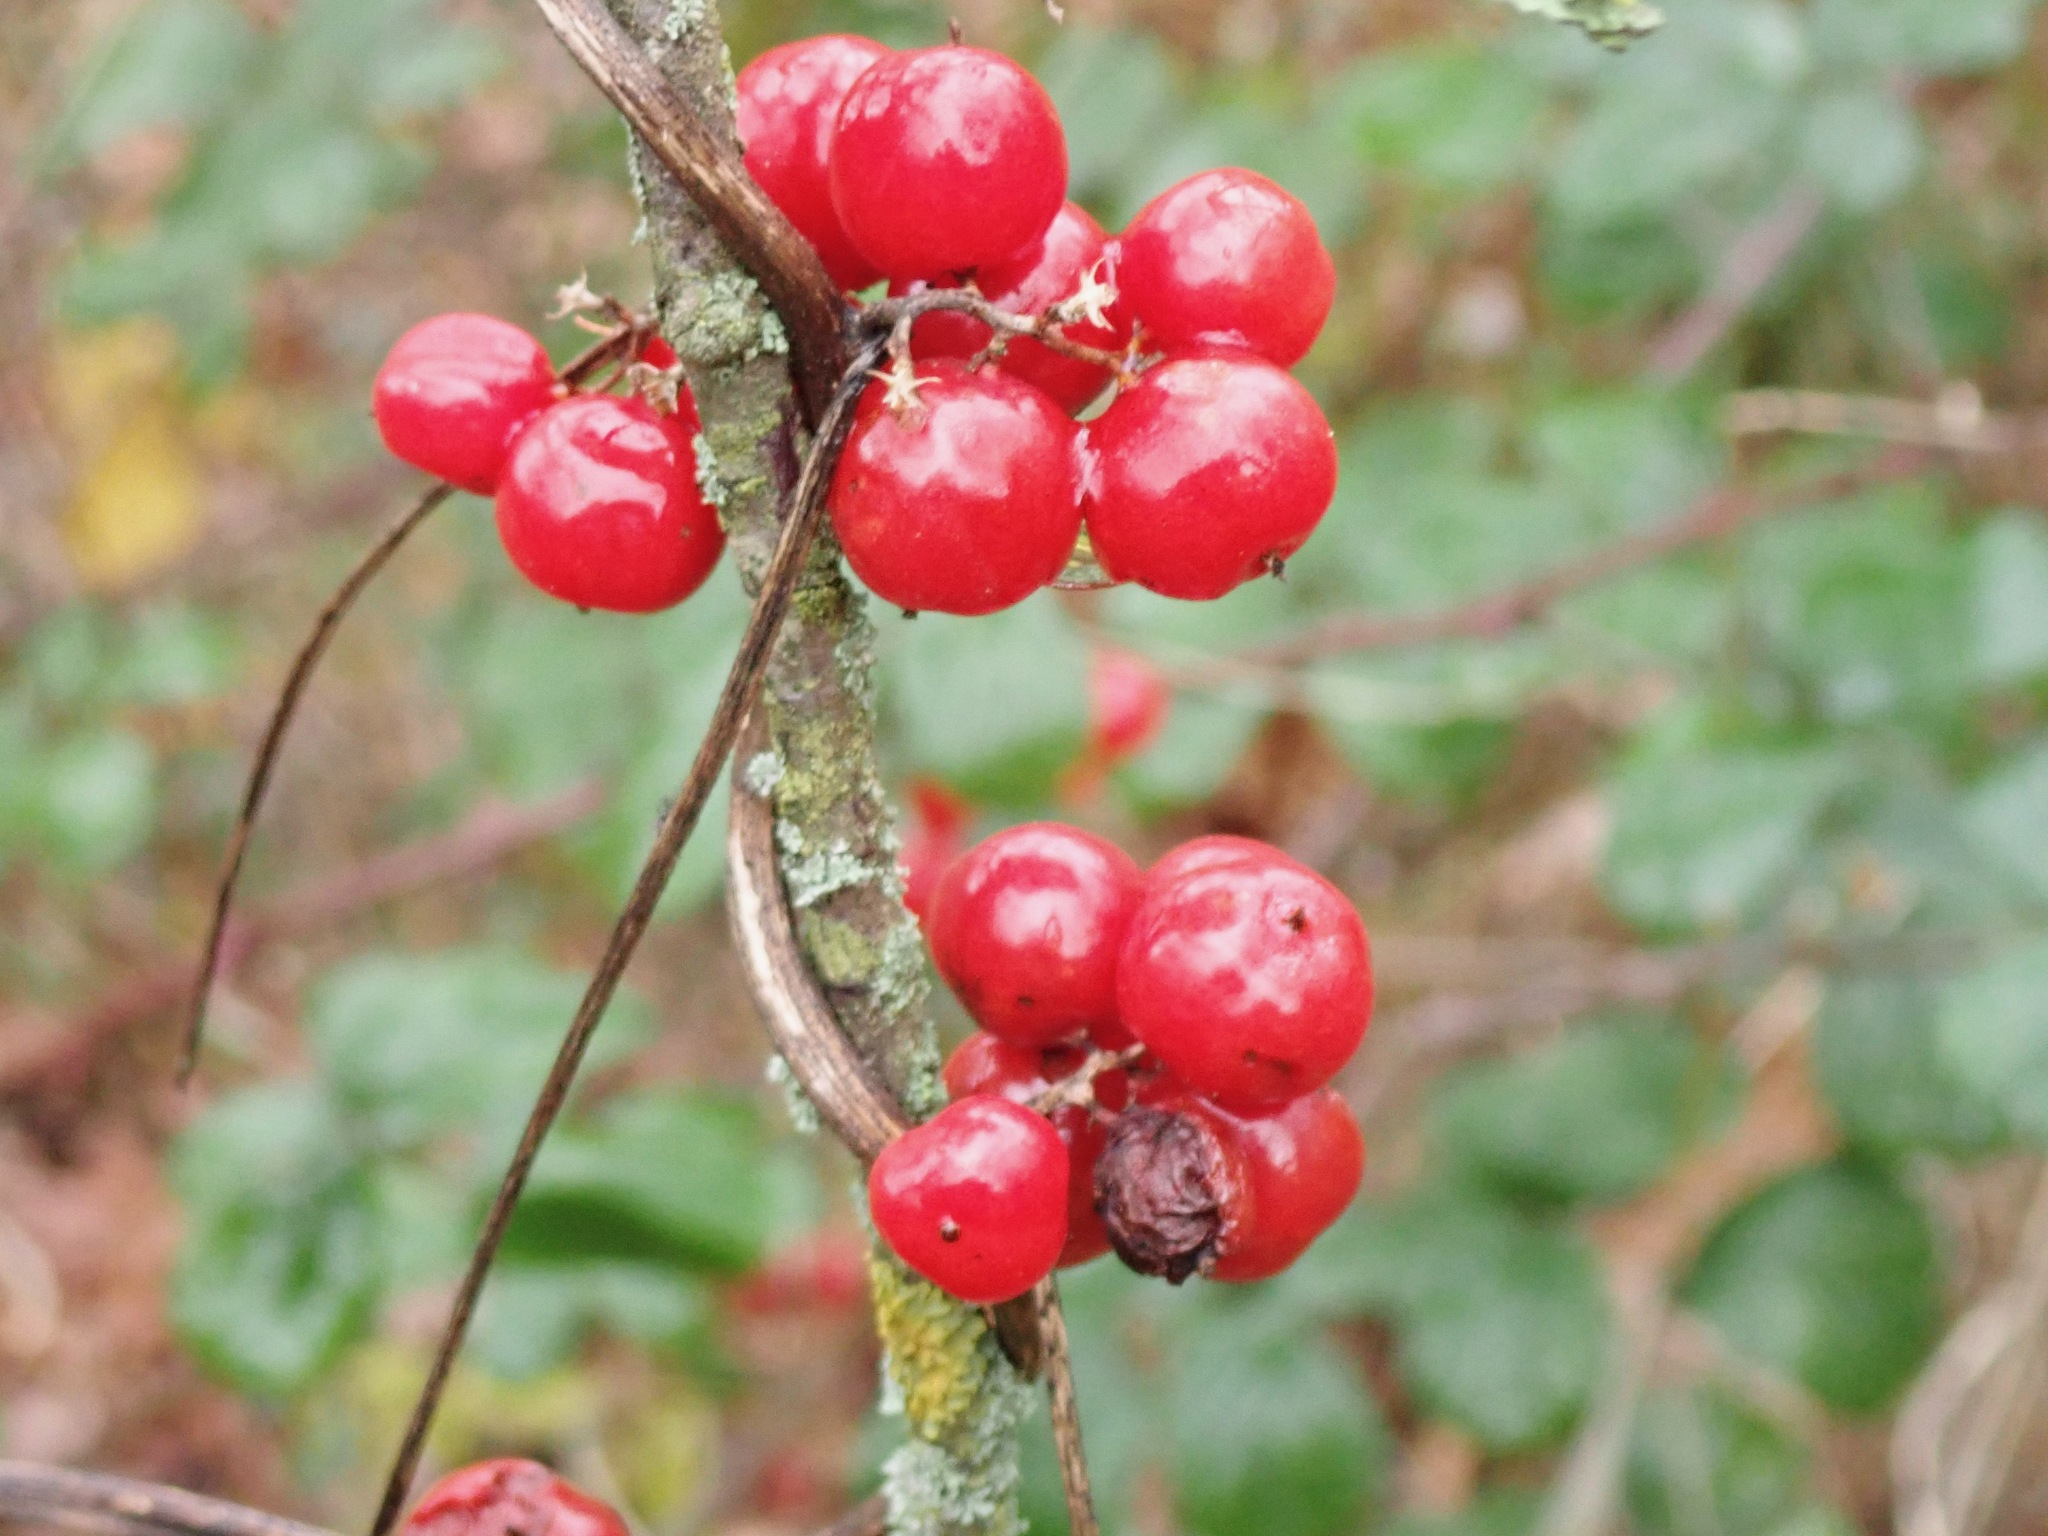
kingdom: Plantae
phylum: Tracheophyta
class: Liliopsida
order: Dioscoreales
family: Dioscoreaceae
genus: Dioscorea
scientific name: Dioscorea communis
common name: Black-bindweed
